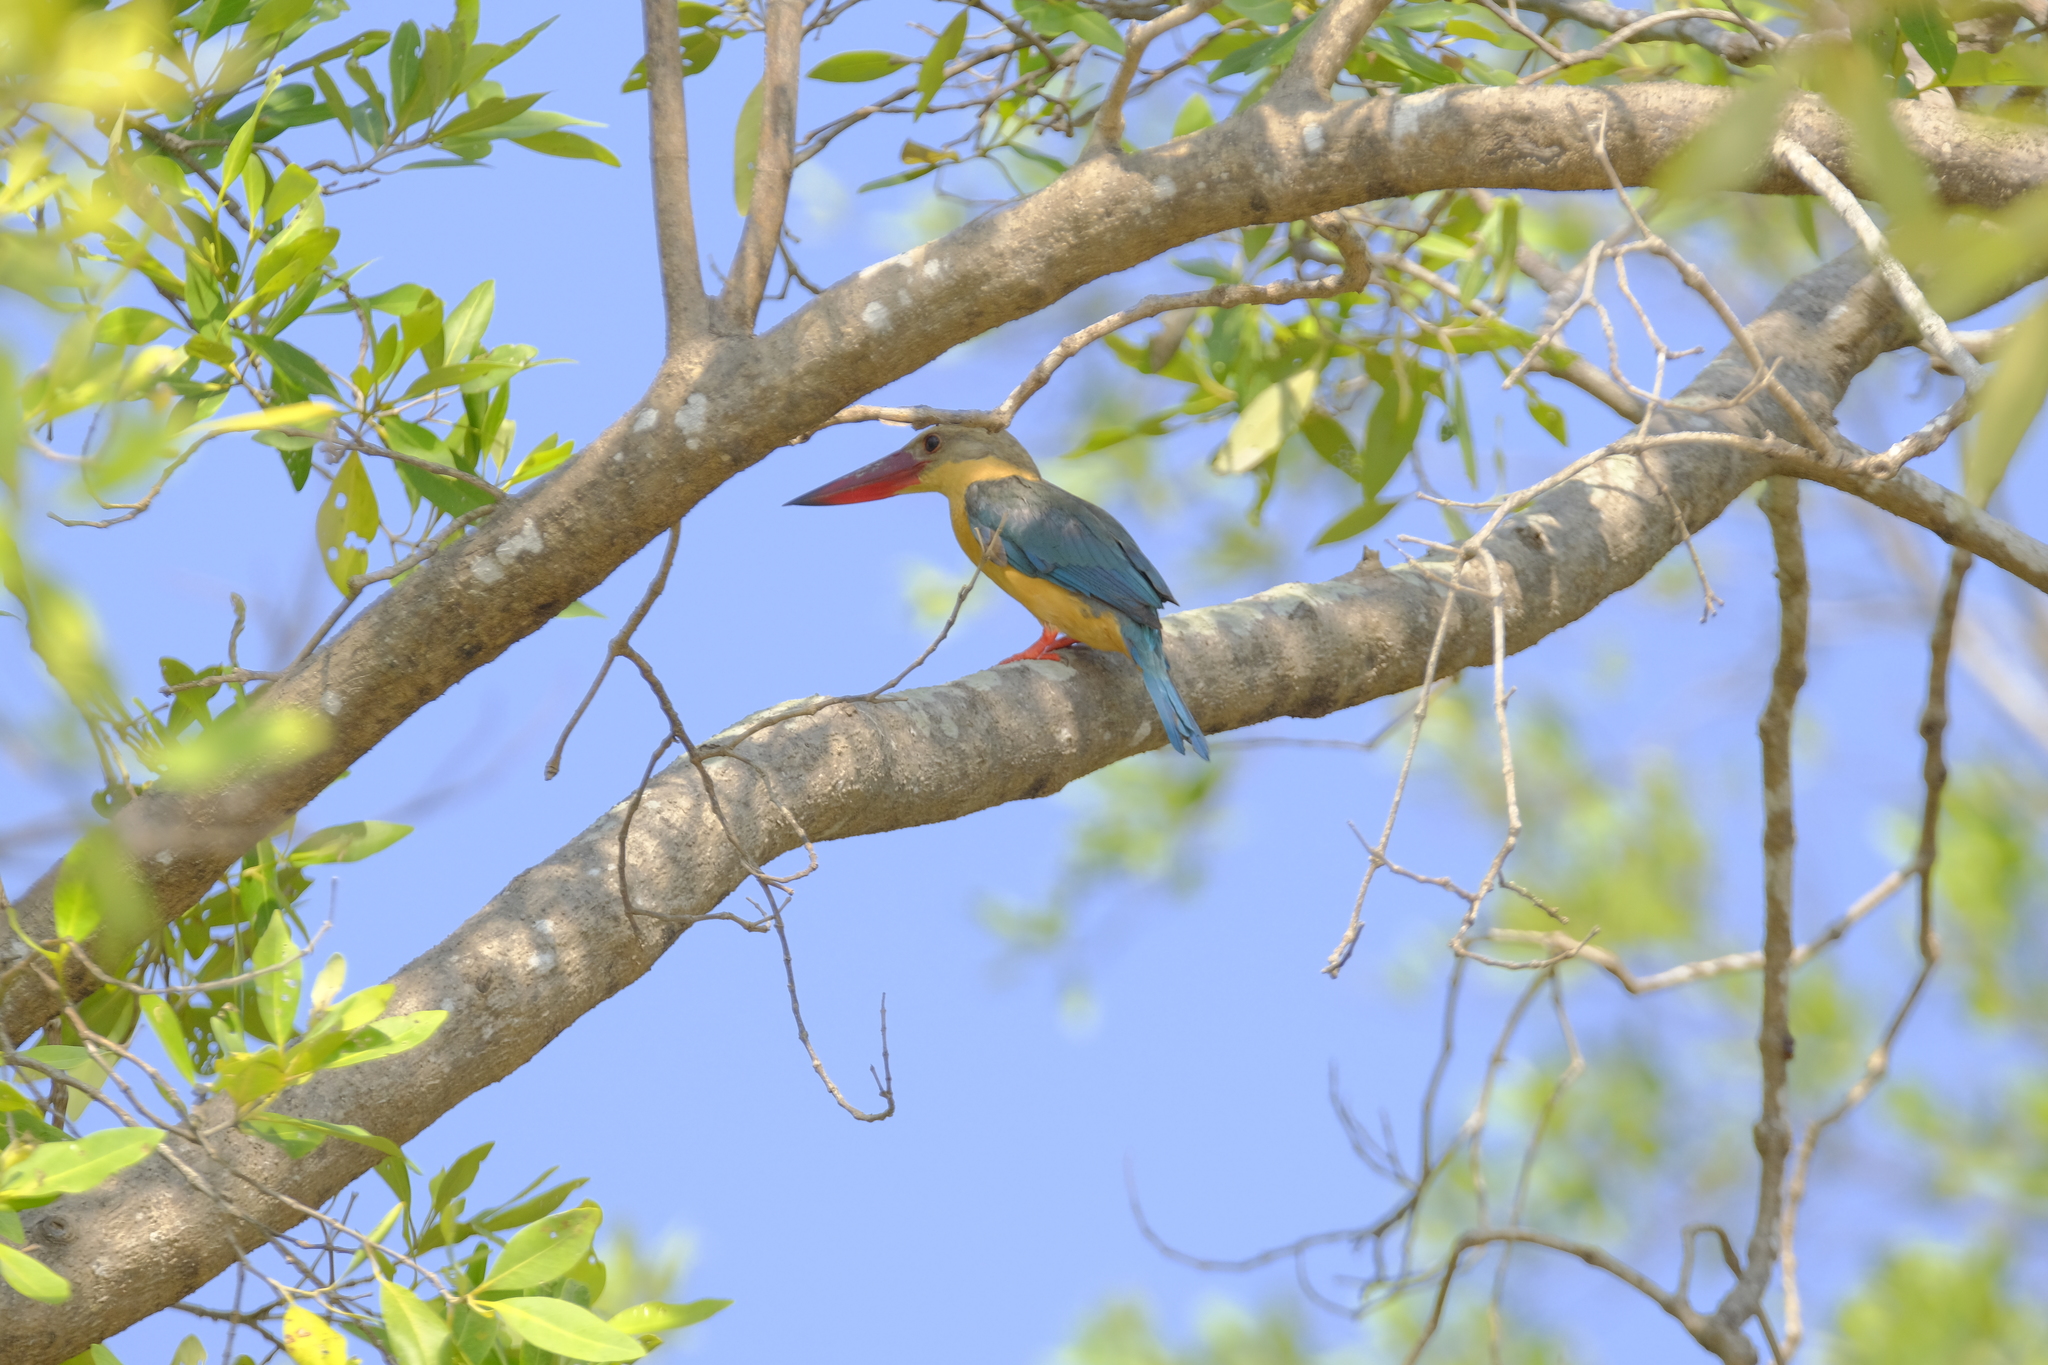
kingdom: Animalia
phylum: Chordata
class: Aves
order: Coraciiformes
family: Alcedinidae
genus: Pelargopsis
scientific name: Pelargopsis capensis
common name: Stork-billed kingfisher
